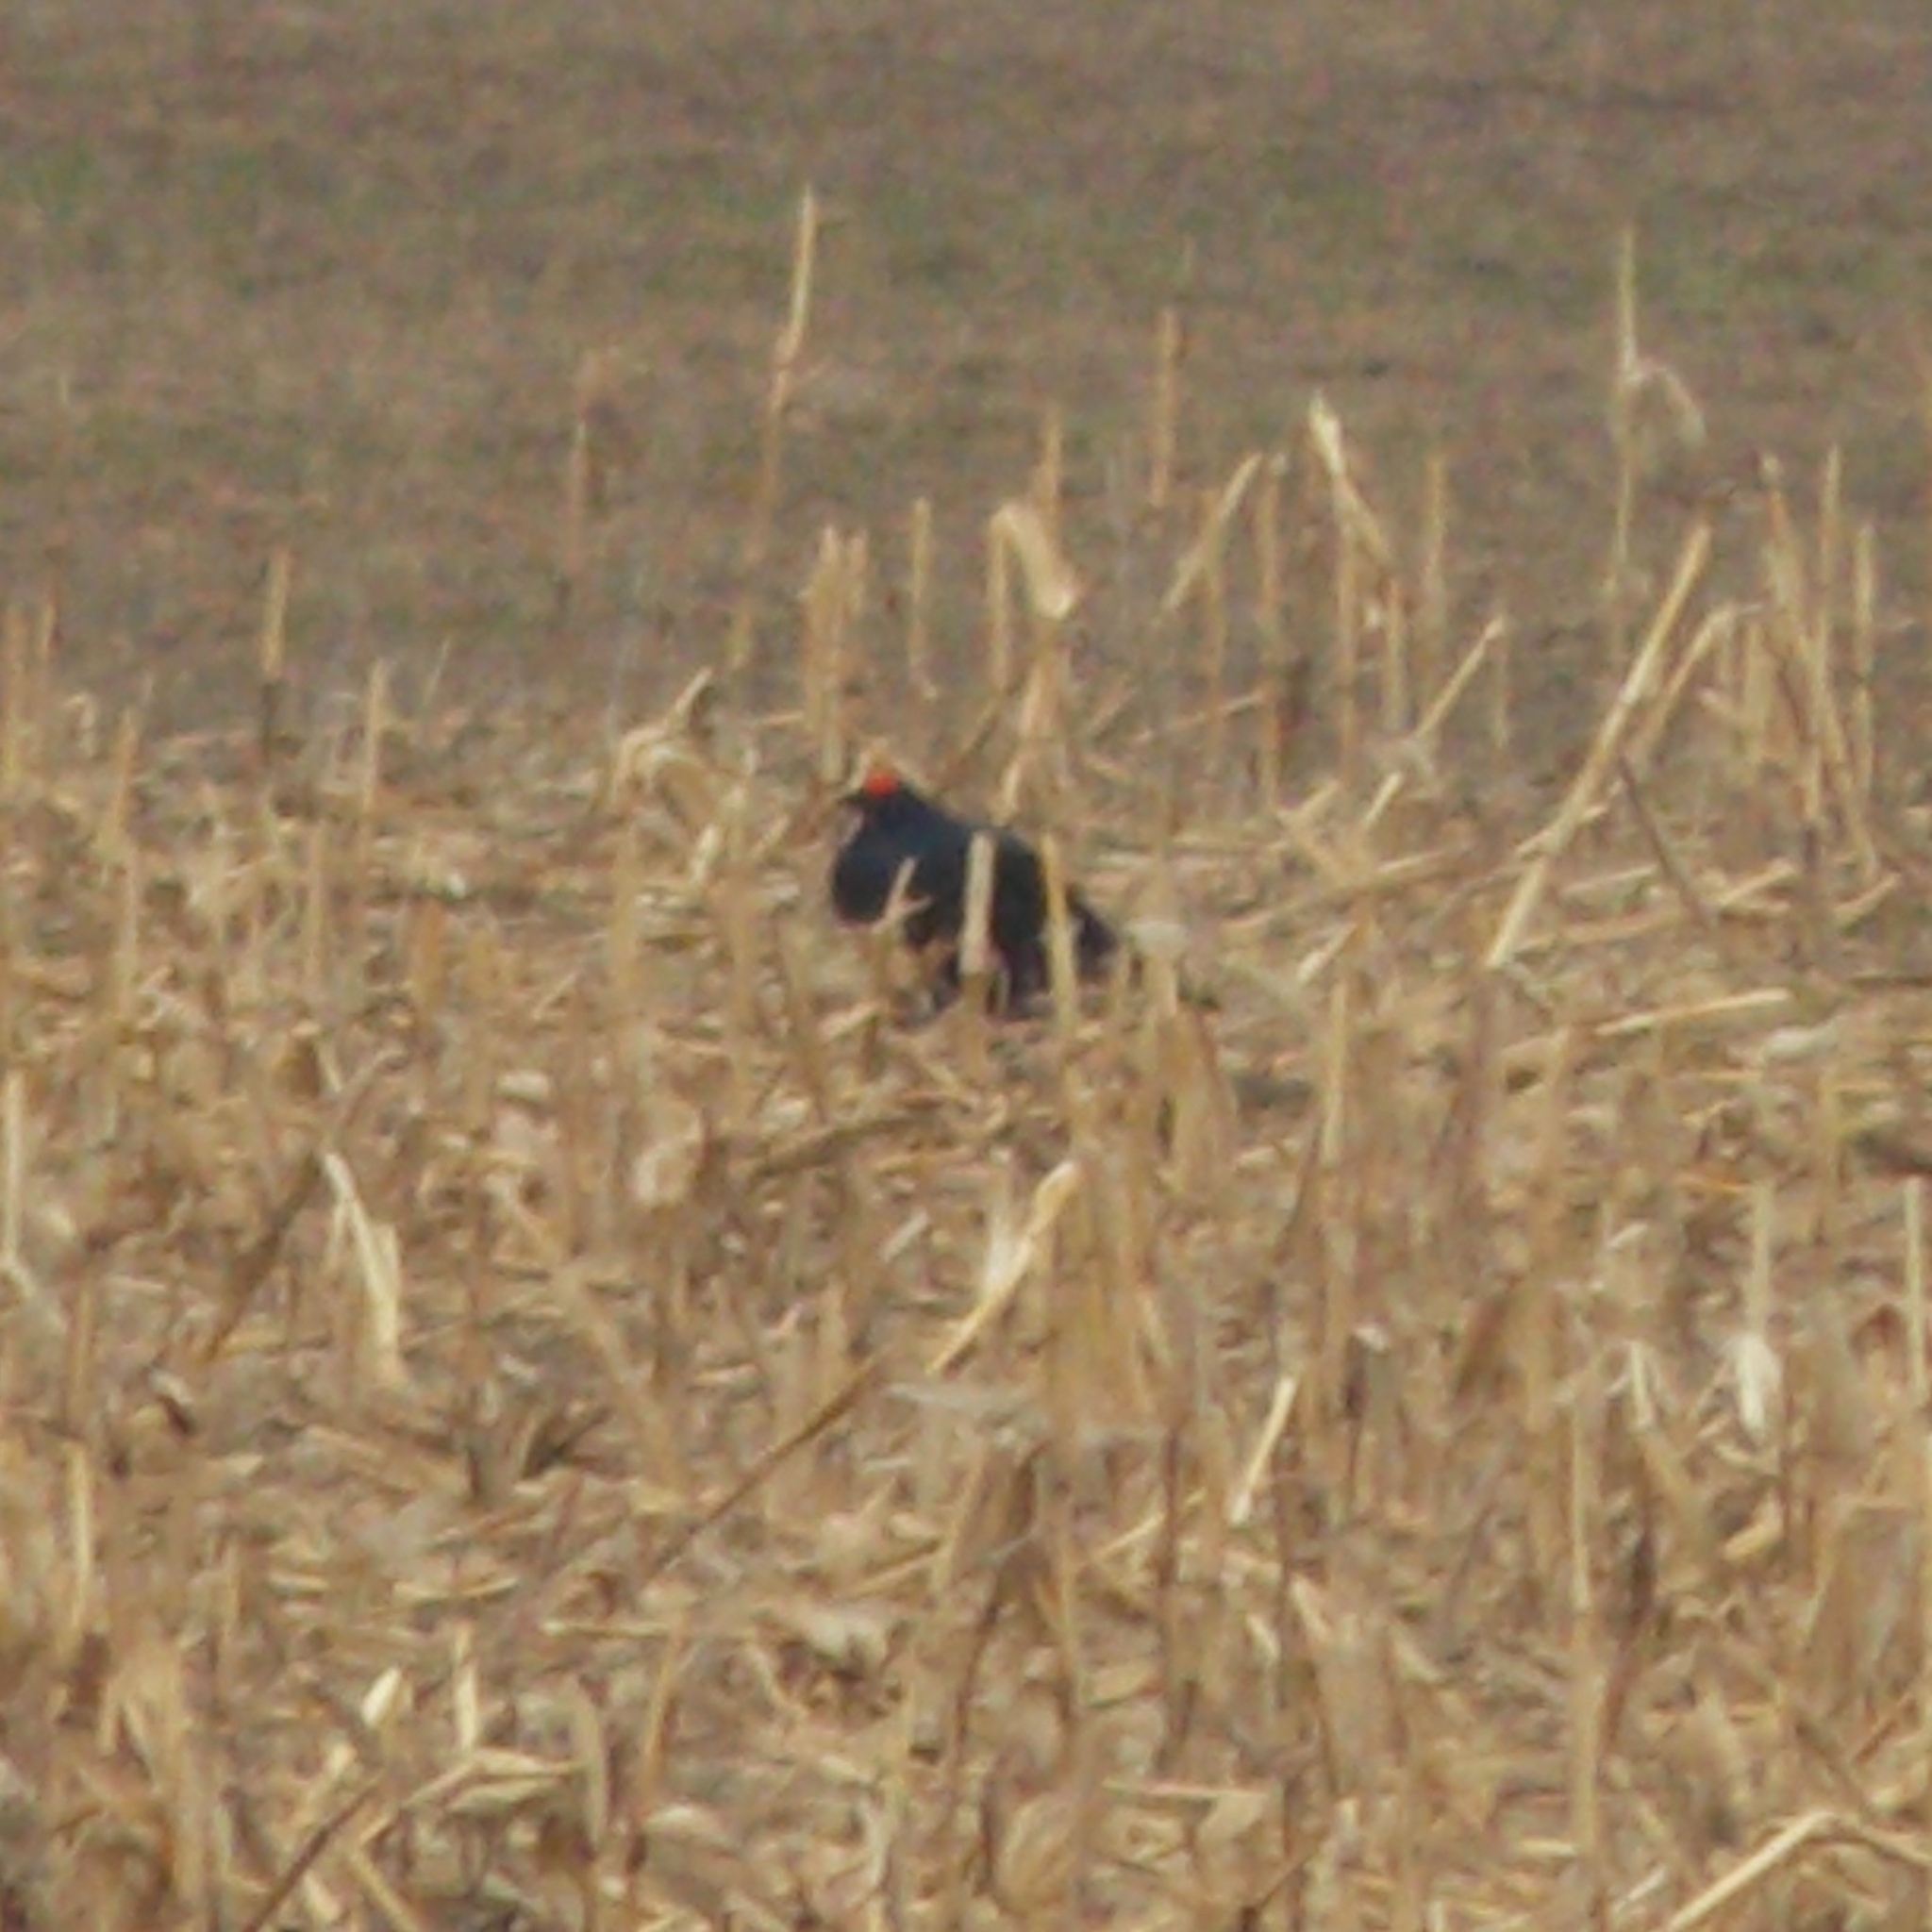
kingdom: Animalia
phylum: Chordata
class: Aves
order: Galliformes
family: Phasianidae
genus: Lyrurus
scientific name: Lyrurus tetrix
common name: Black grouse
